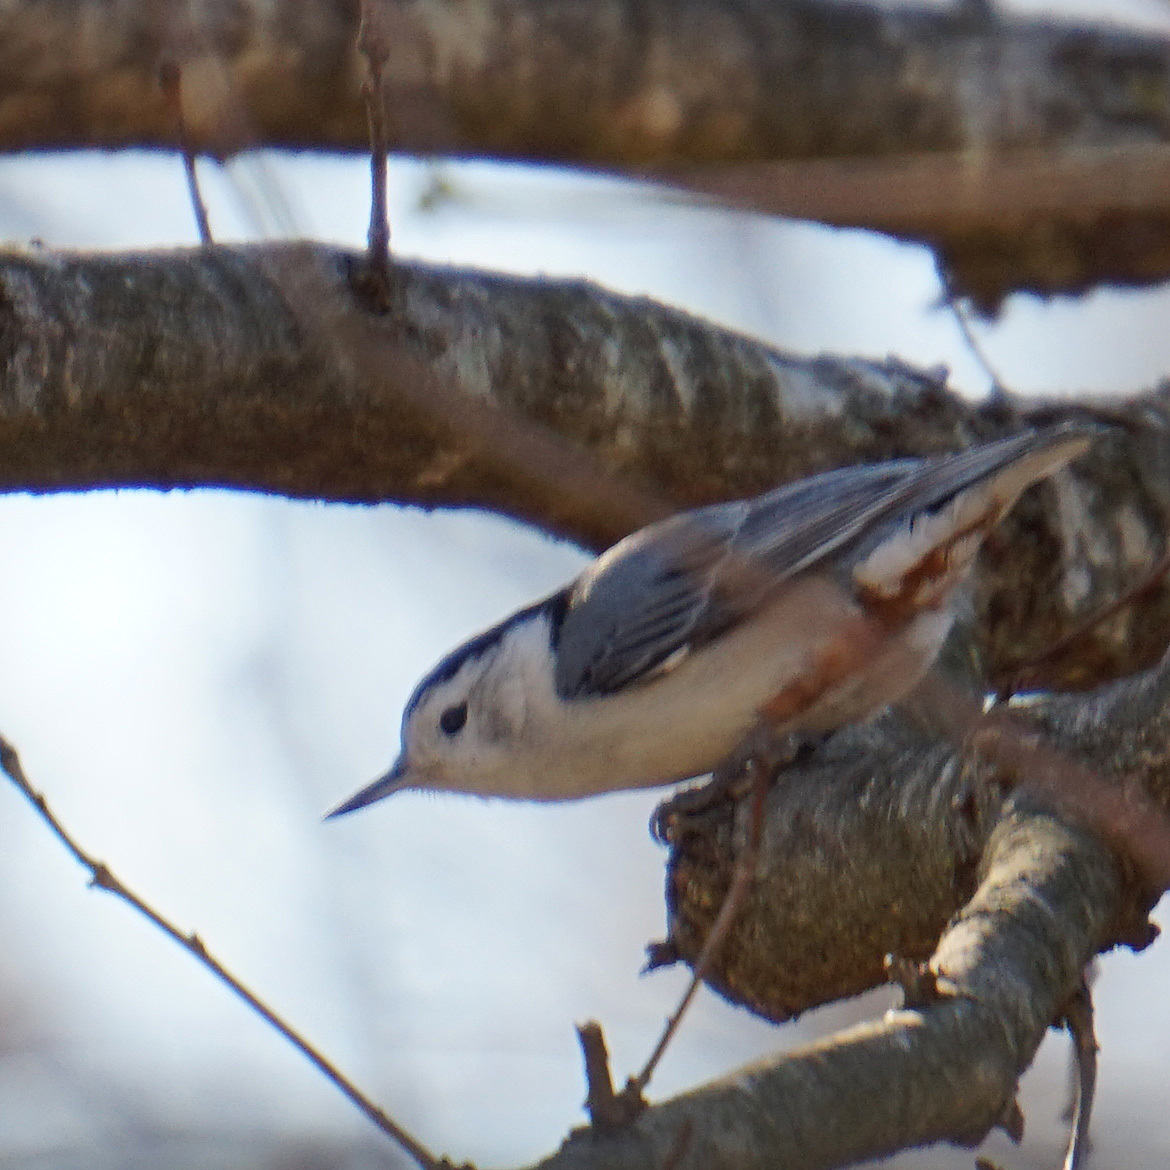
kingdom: Animalia
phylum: Chordata
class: Aves
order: Passeriformes
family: Sittidae
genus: Sitta
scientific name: Sitta carolinensis
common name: White-breasted nuthatch
